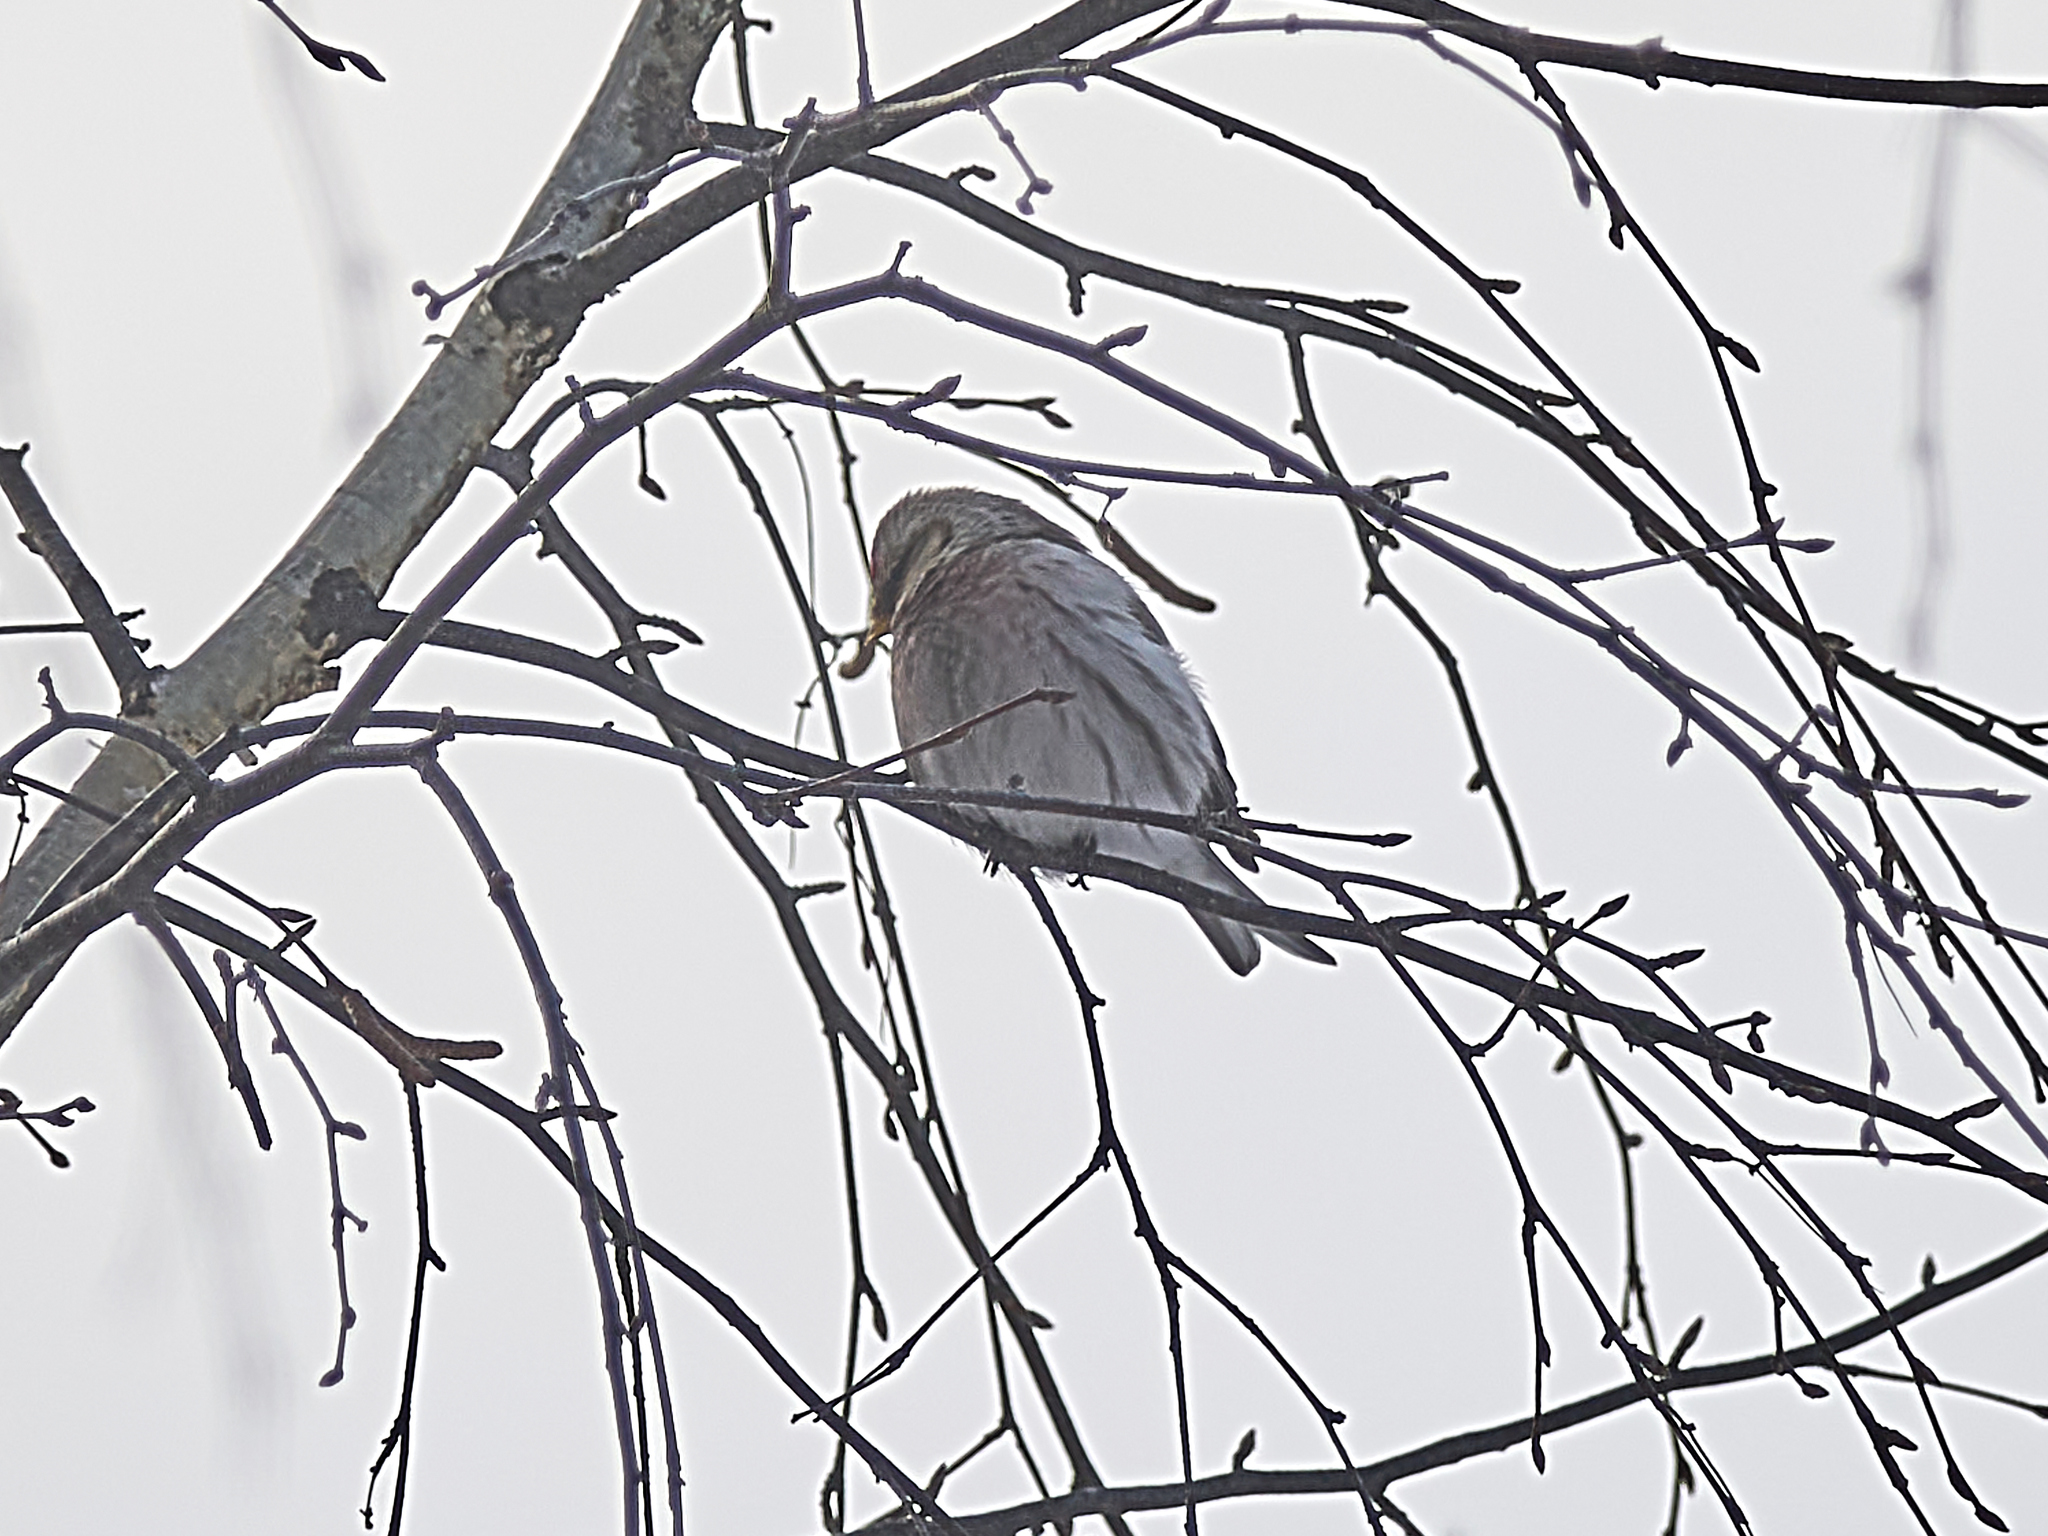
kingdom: Animalia
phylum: Chordata
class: Aves
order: Passeriformes
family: Fringillidae
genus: Acanthis
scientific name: Acanthis flammea
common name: Common redpoll
